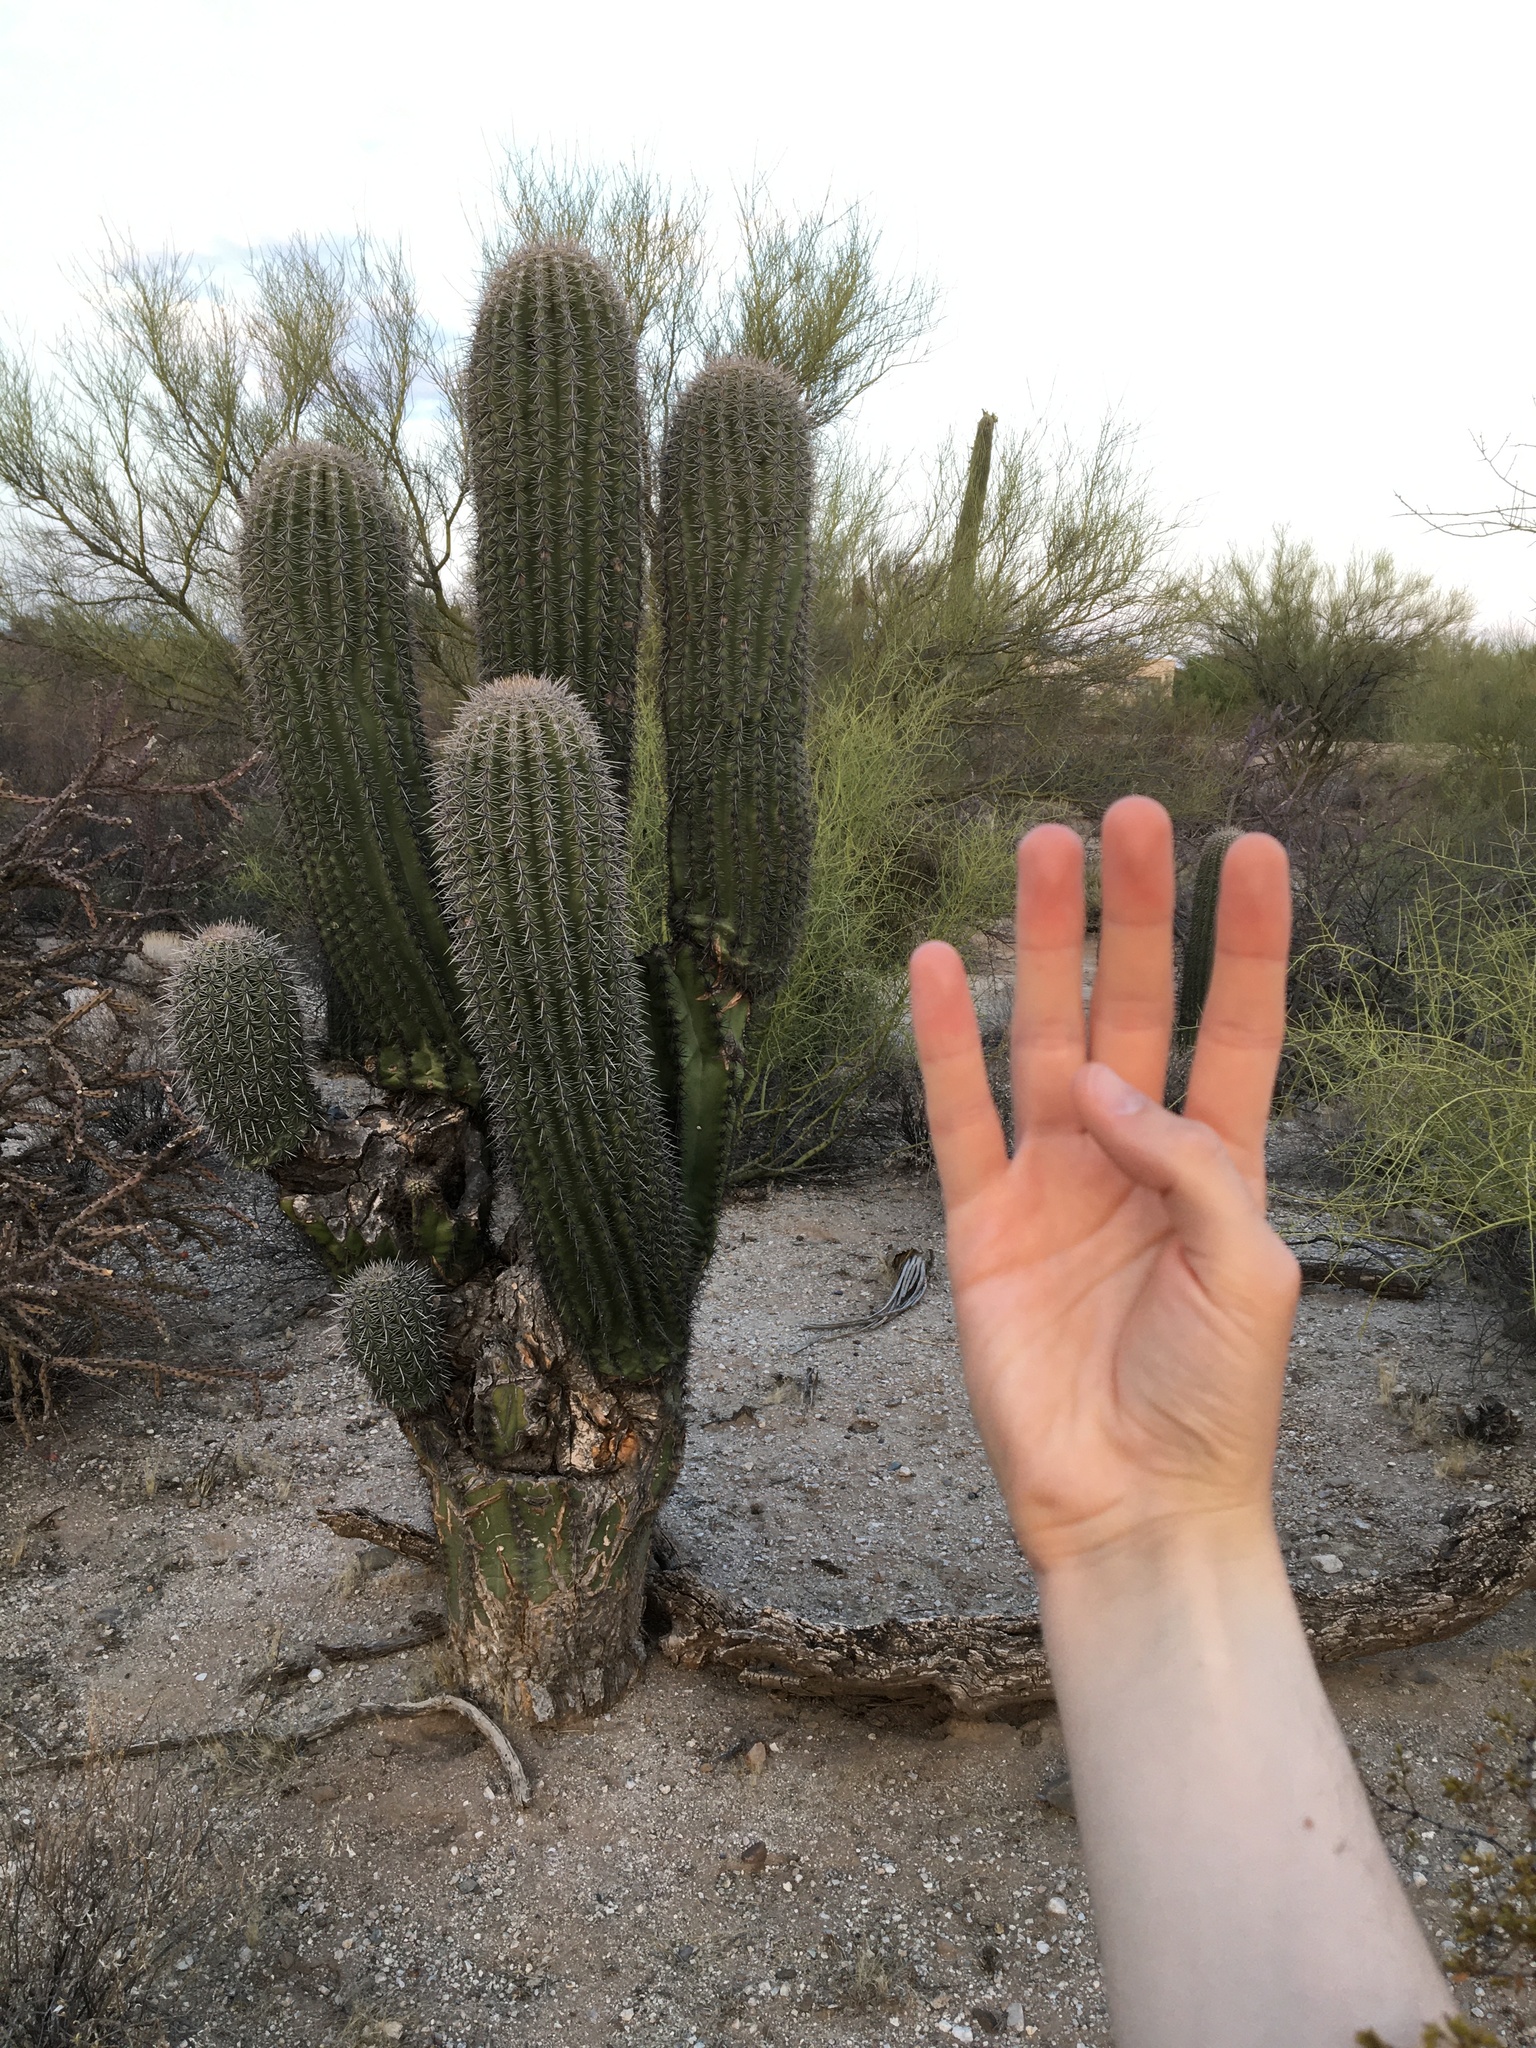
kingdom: Plantae
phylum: Tracheophyta
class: Magnoliopsida
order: Caryophyllales
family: Cactaceae
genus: Carnegiea
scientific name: Carnegiea gigantea
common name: Saguaro
